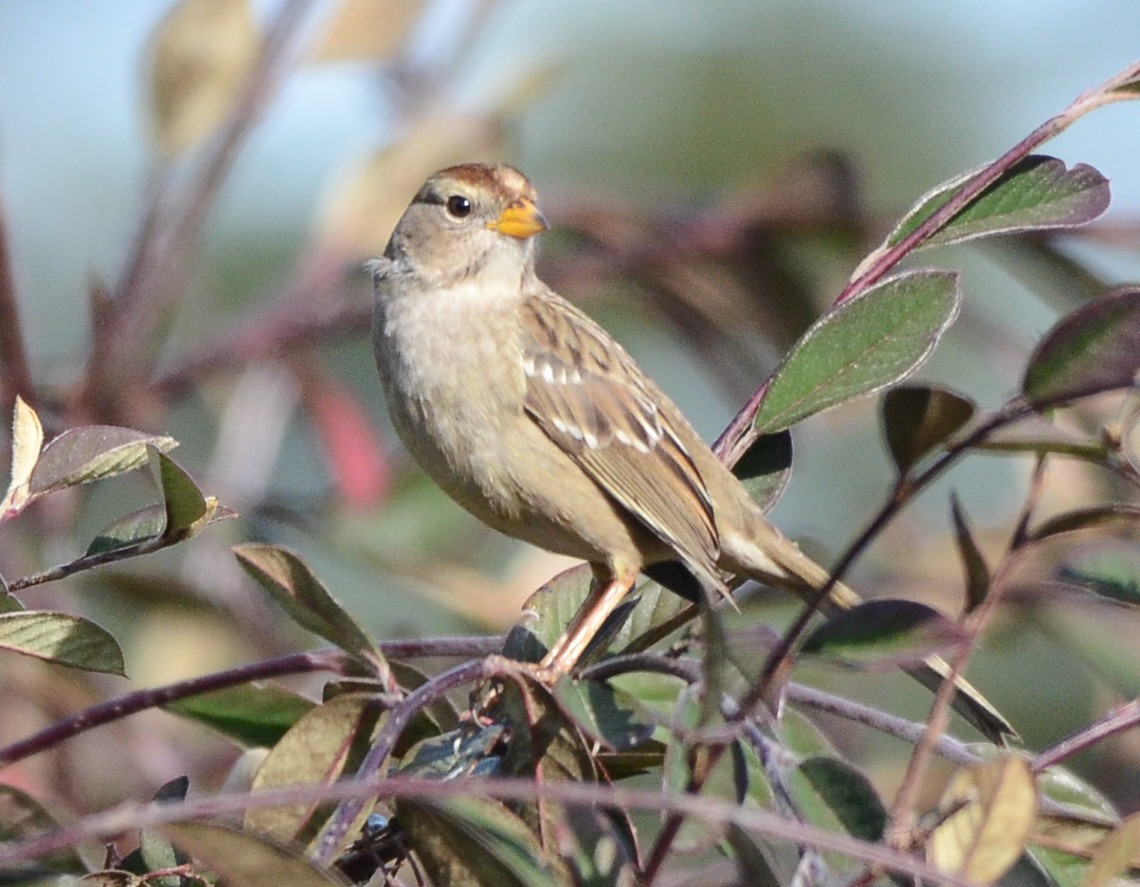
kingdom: Animalia
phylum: Chordata
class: Aves
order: Passeriformes
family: Passerellidae
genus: Zonotrichia
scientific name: Zonotrichia leucophrys
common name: White-crowned sparrow
